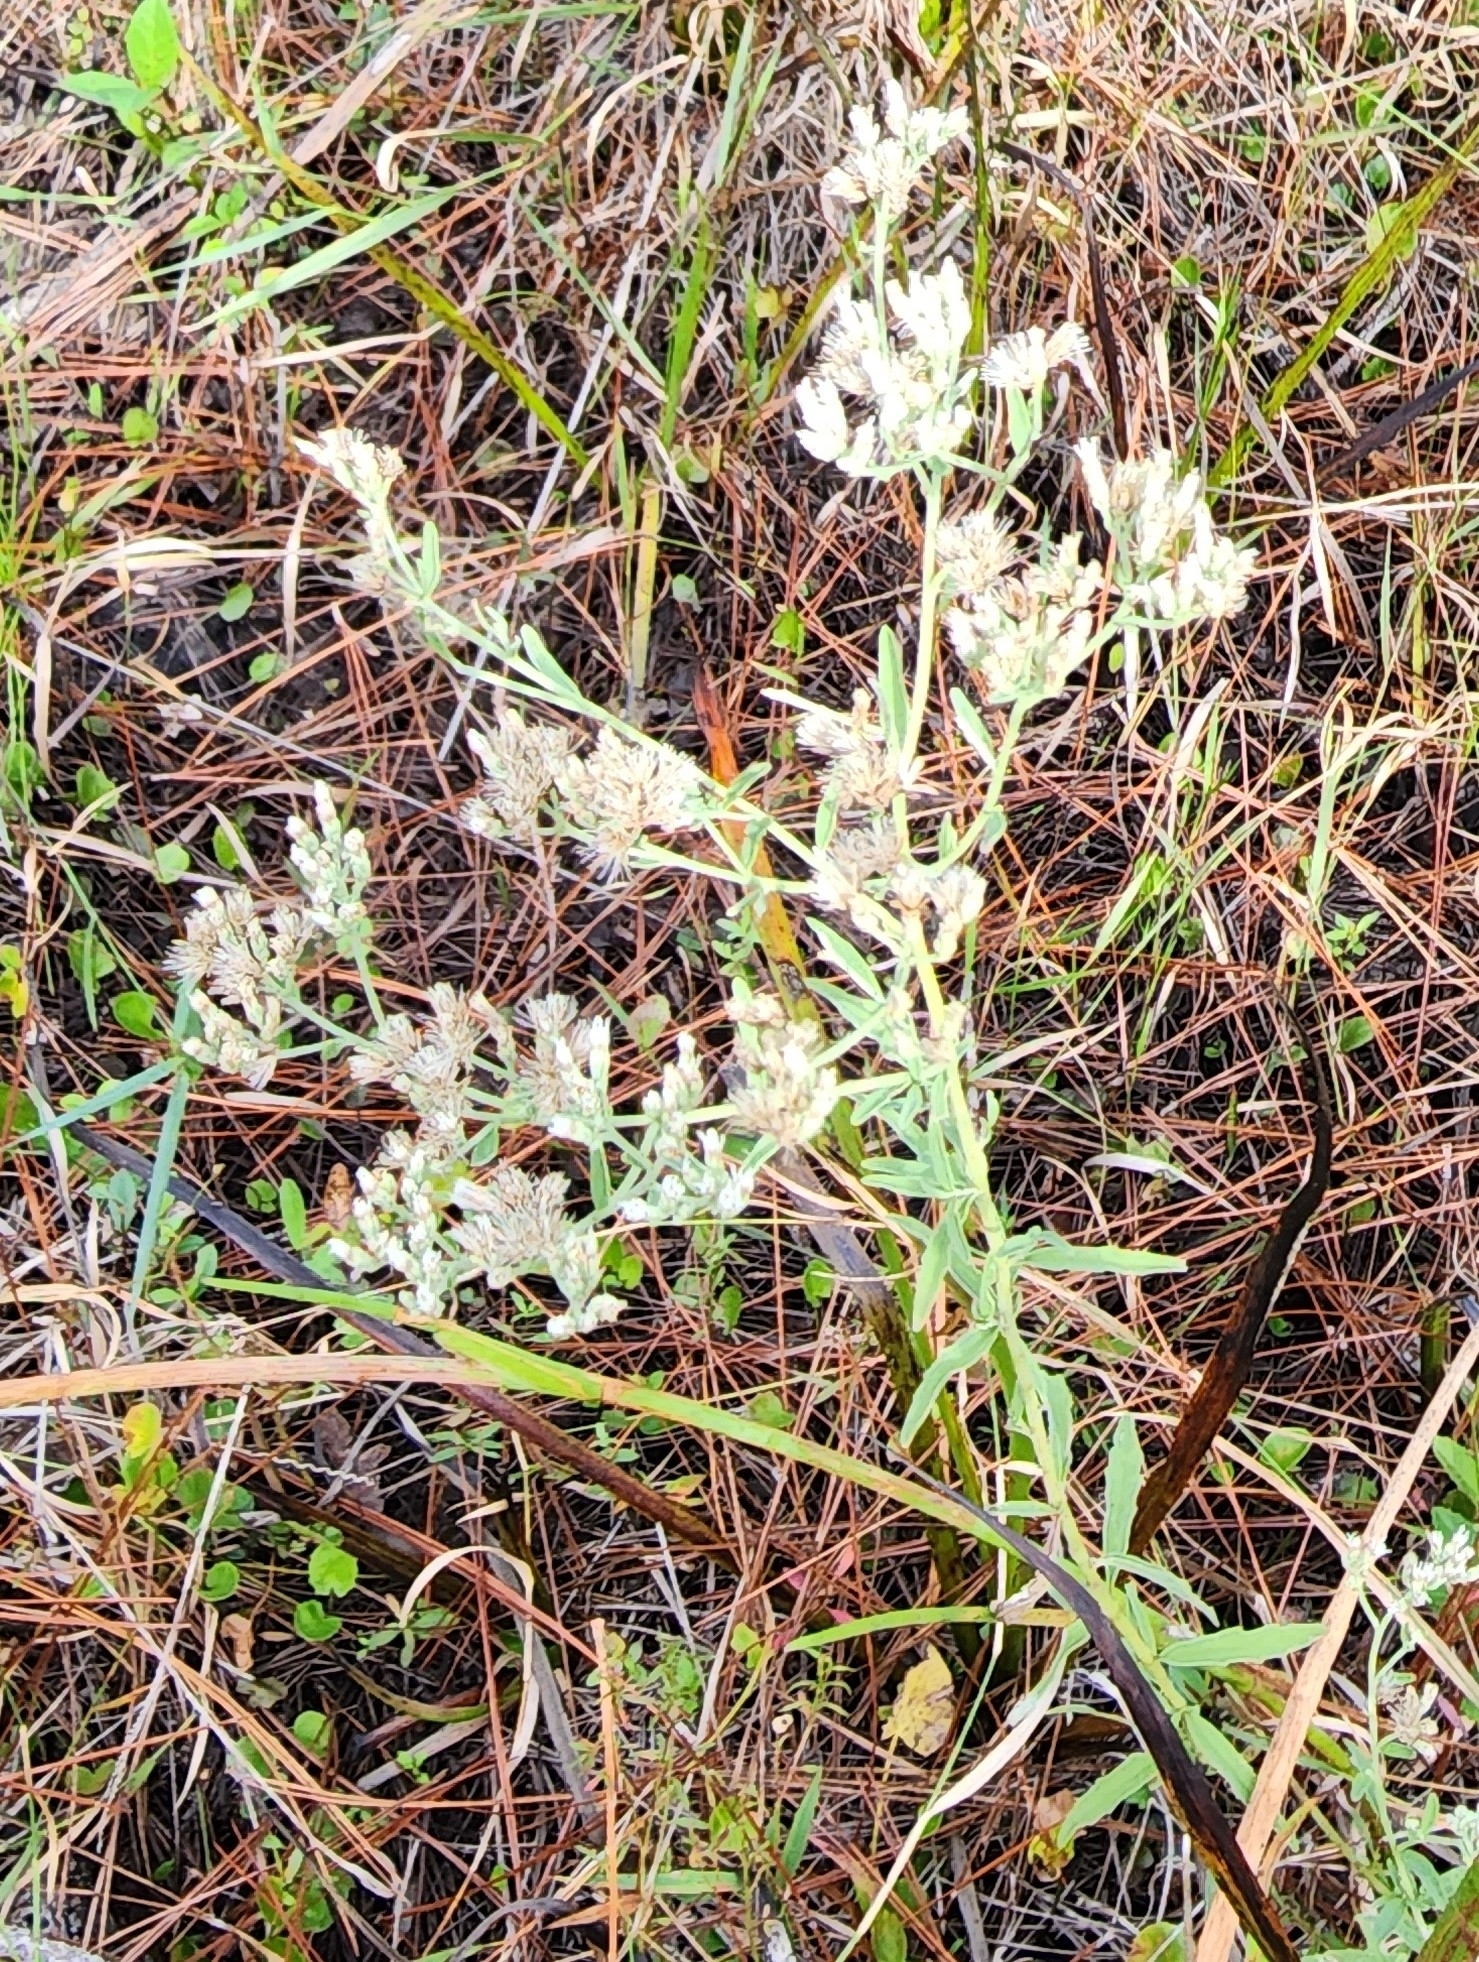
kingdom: Plantae
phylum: Tracheophyta
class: Magnoliopsida
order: Asterales
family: Asteraceae
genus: Eupatorium
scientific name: Eupatorium mohrii
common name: Mohr's thoroughwort
